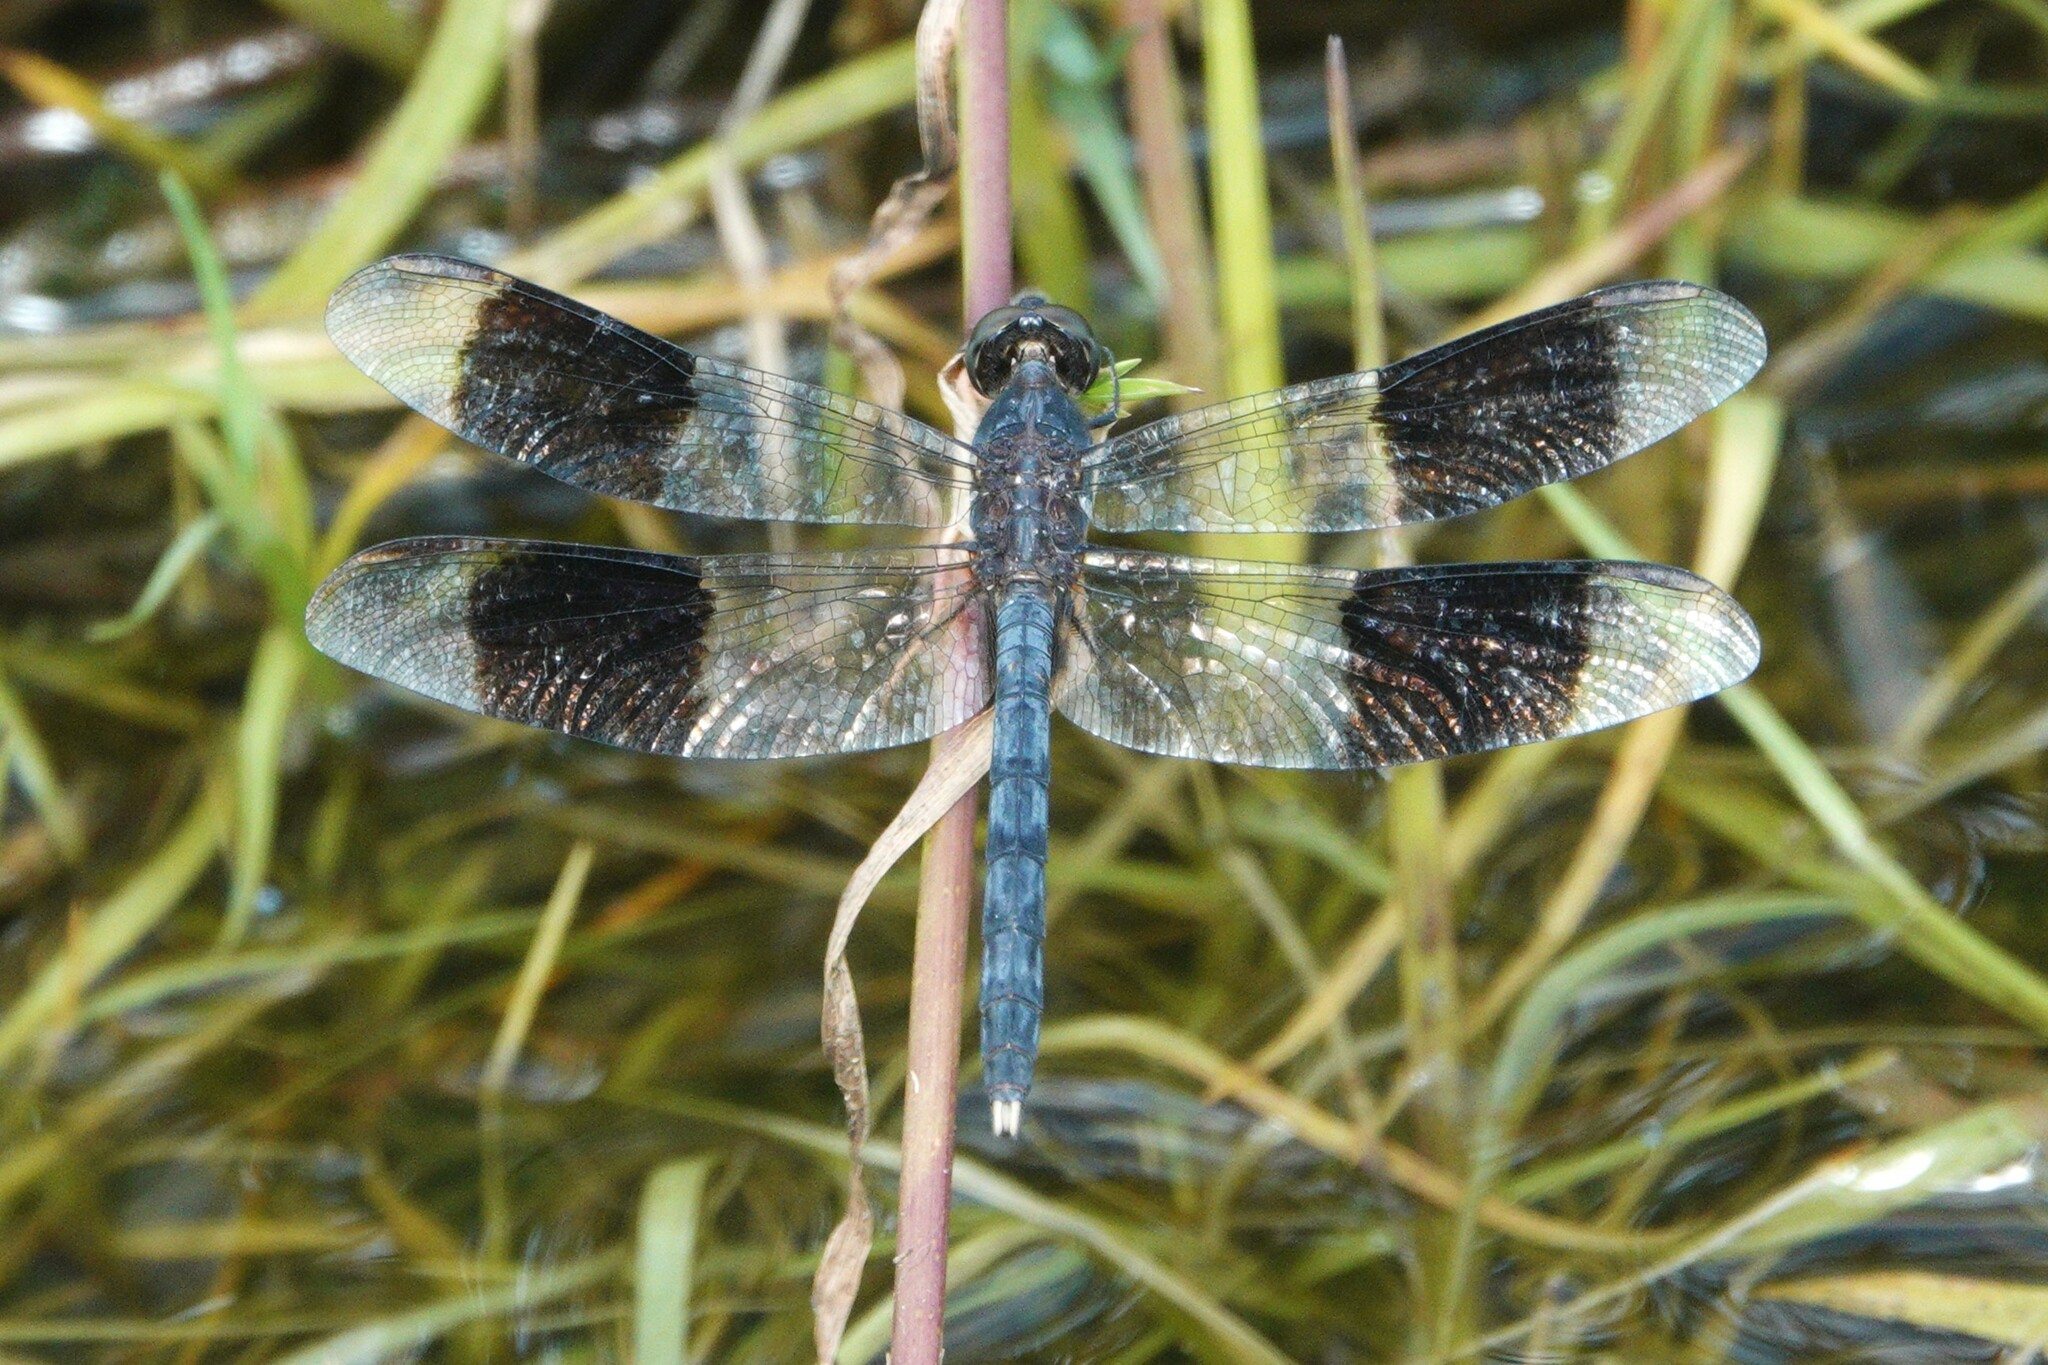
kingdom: Animalia
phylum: Arthropoda
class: Insecta
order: Odonata
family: Libellulidae
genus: Erythrodiplax
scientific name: Erythrodiplax umbrata
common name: Band-winged dragonlet
